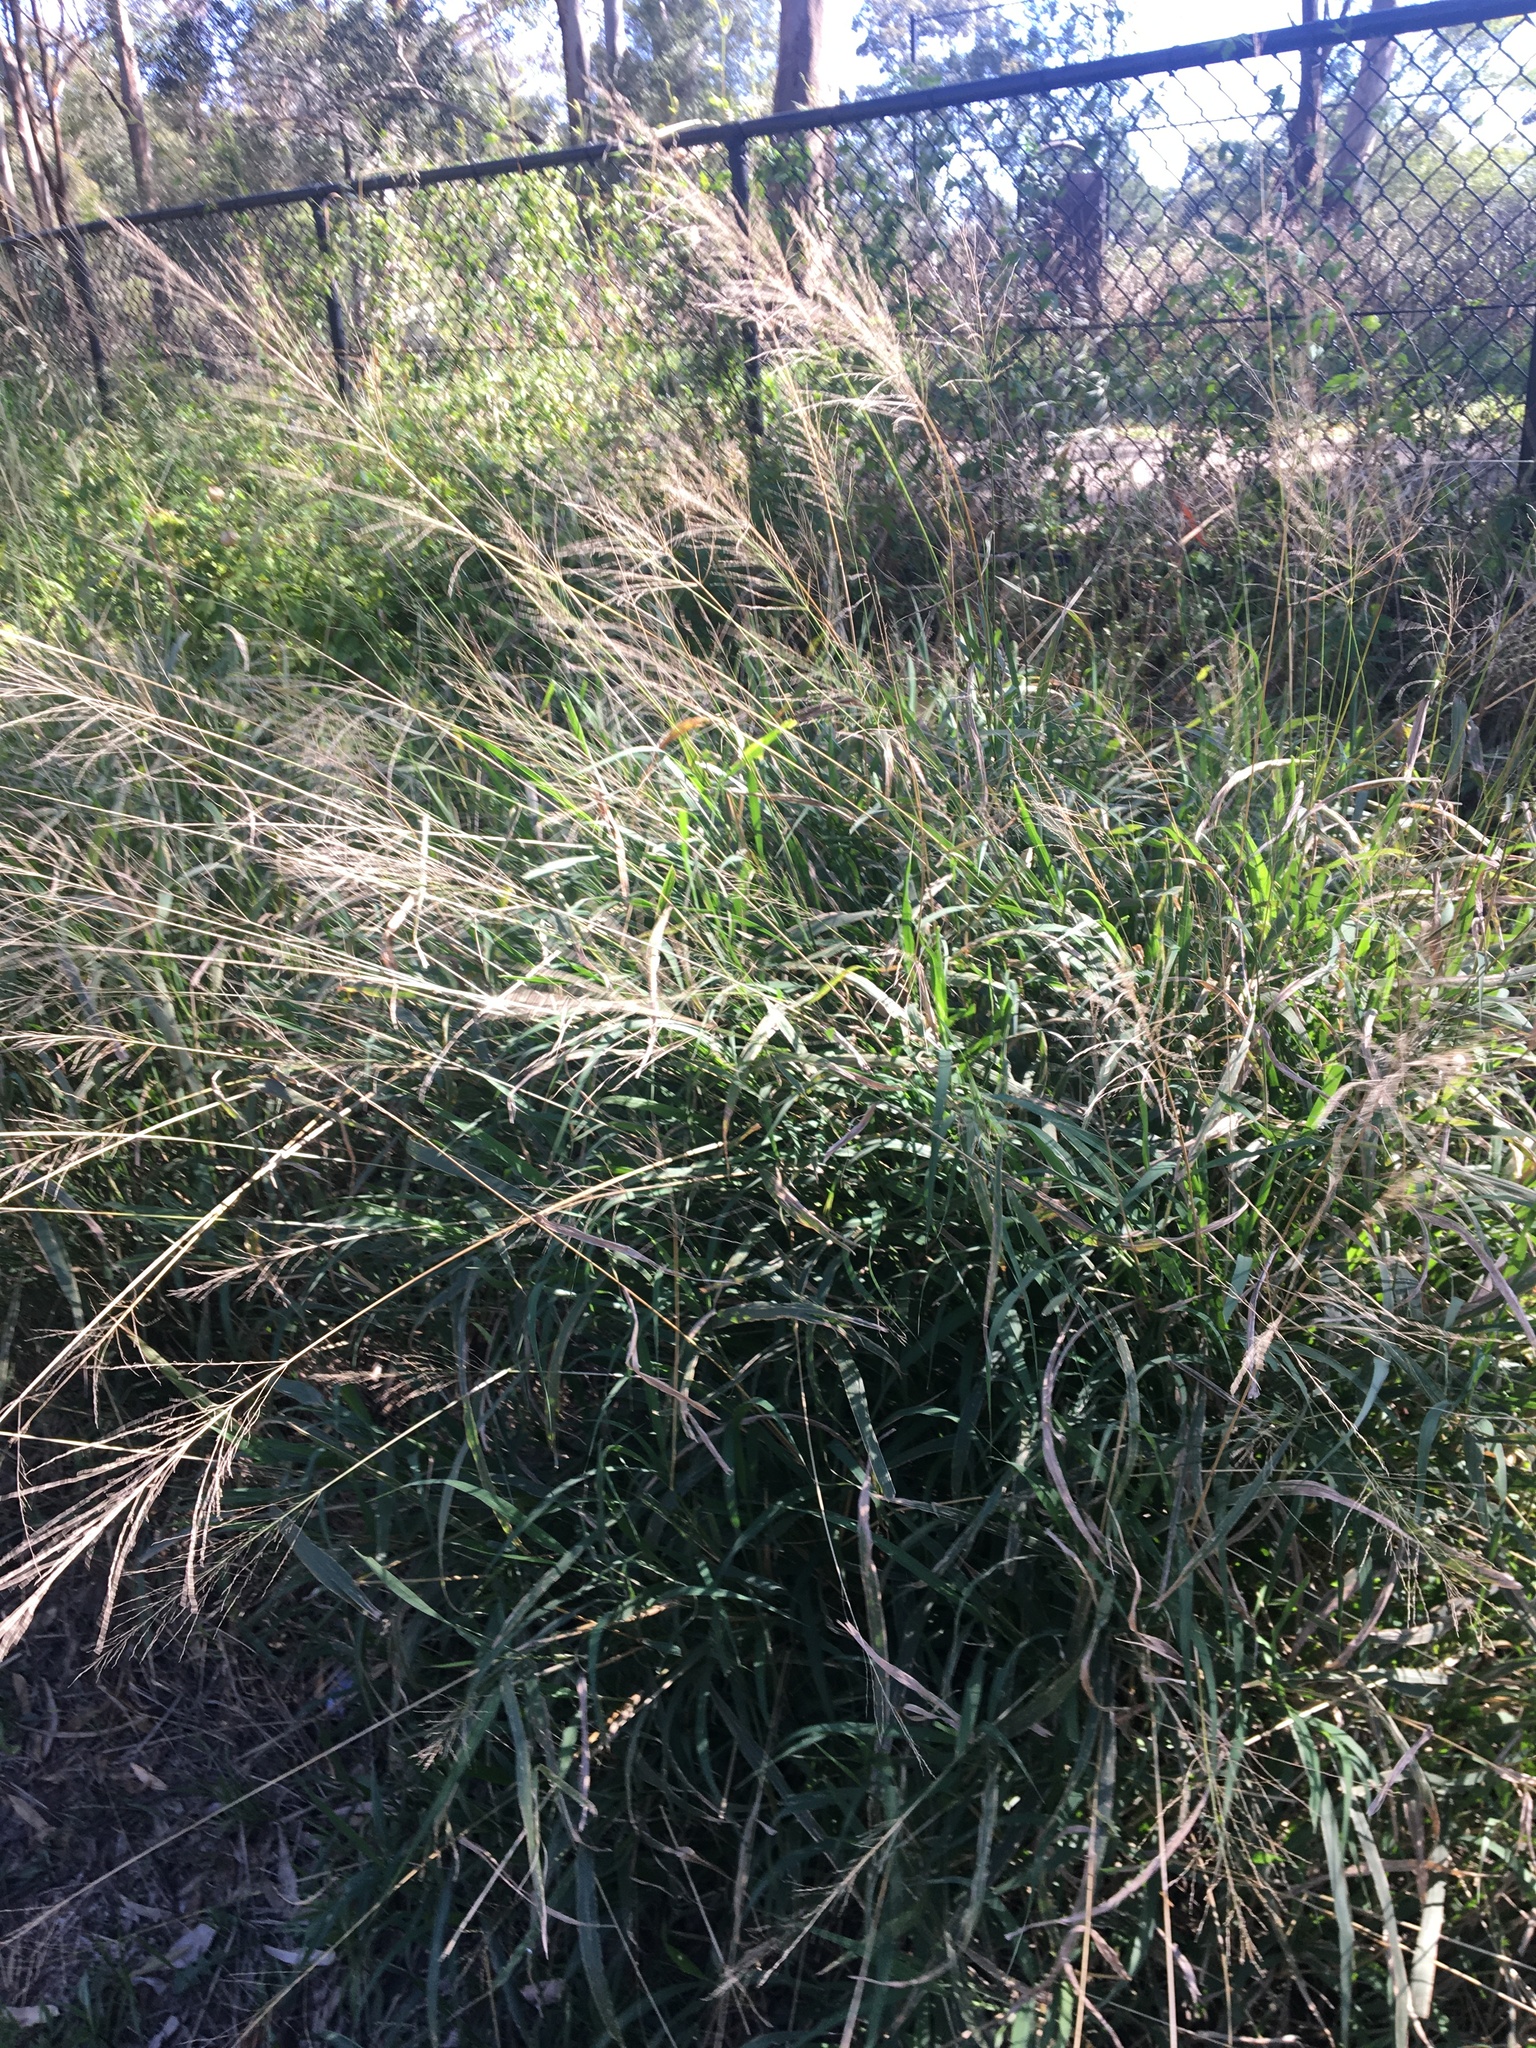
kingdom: Plantae
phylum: Tracheophyta
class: Liliopsida
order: Poales
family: Poaceae
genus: Megathyrsus
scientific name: Megathyrsus maximus
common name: Guineagrass
